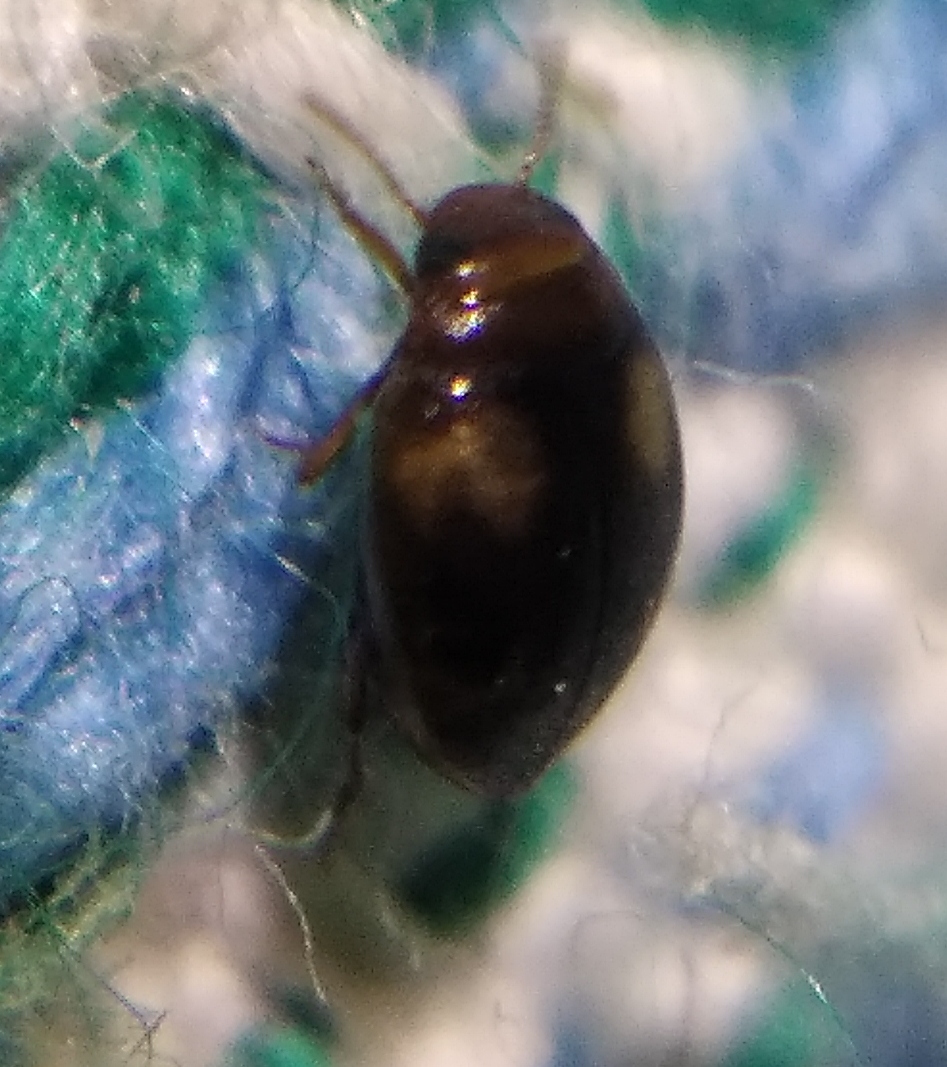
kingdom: Animalia
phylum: Arthropoda
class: Insecta
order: Coleoptera
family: Dytiscidae
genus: Clemnius
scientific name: Clemnius decoratus
